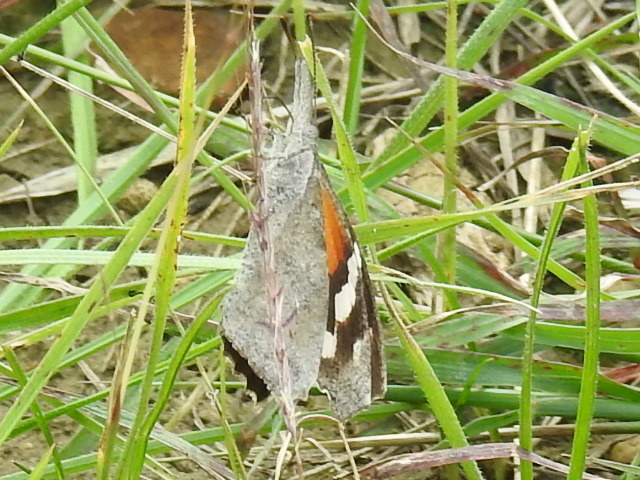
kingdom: Animalia
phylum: Arthropoda
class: Insecta
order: Lepidoptera
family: Nymphalidae
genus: Libytheana
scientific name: Libytheana carinenta
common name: American snout
